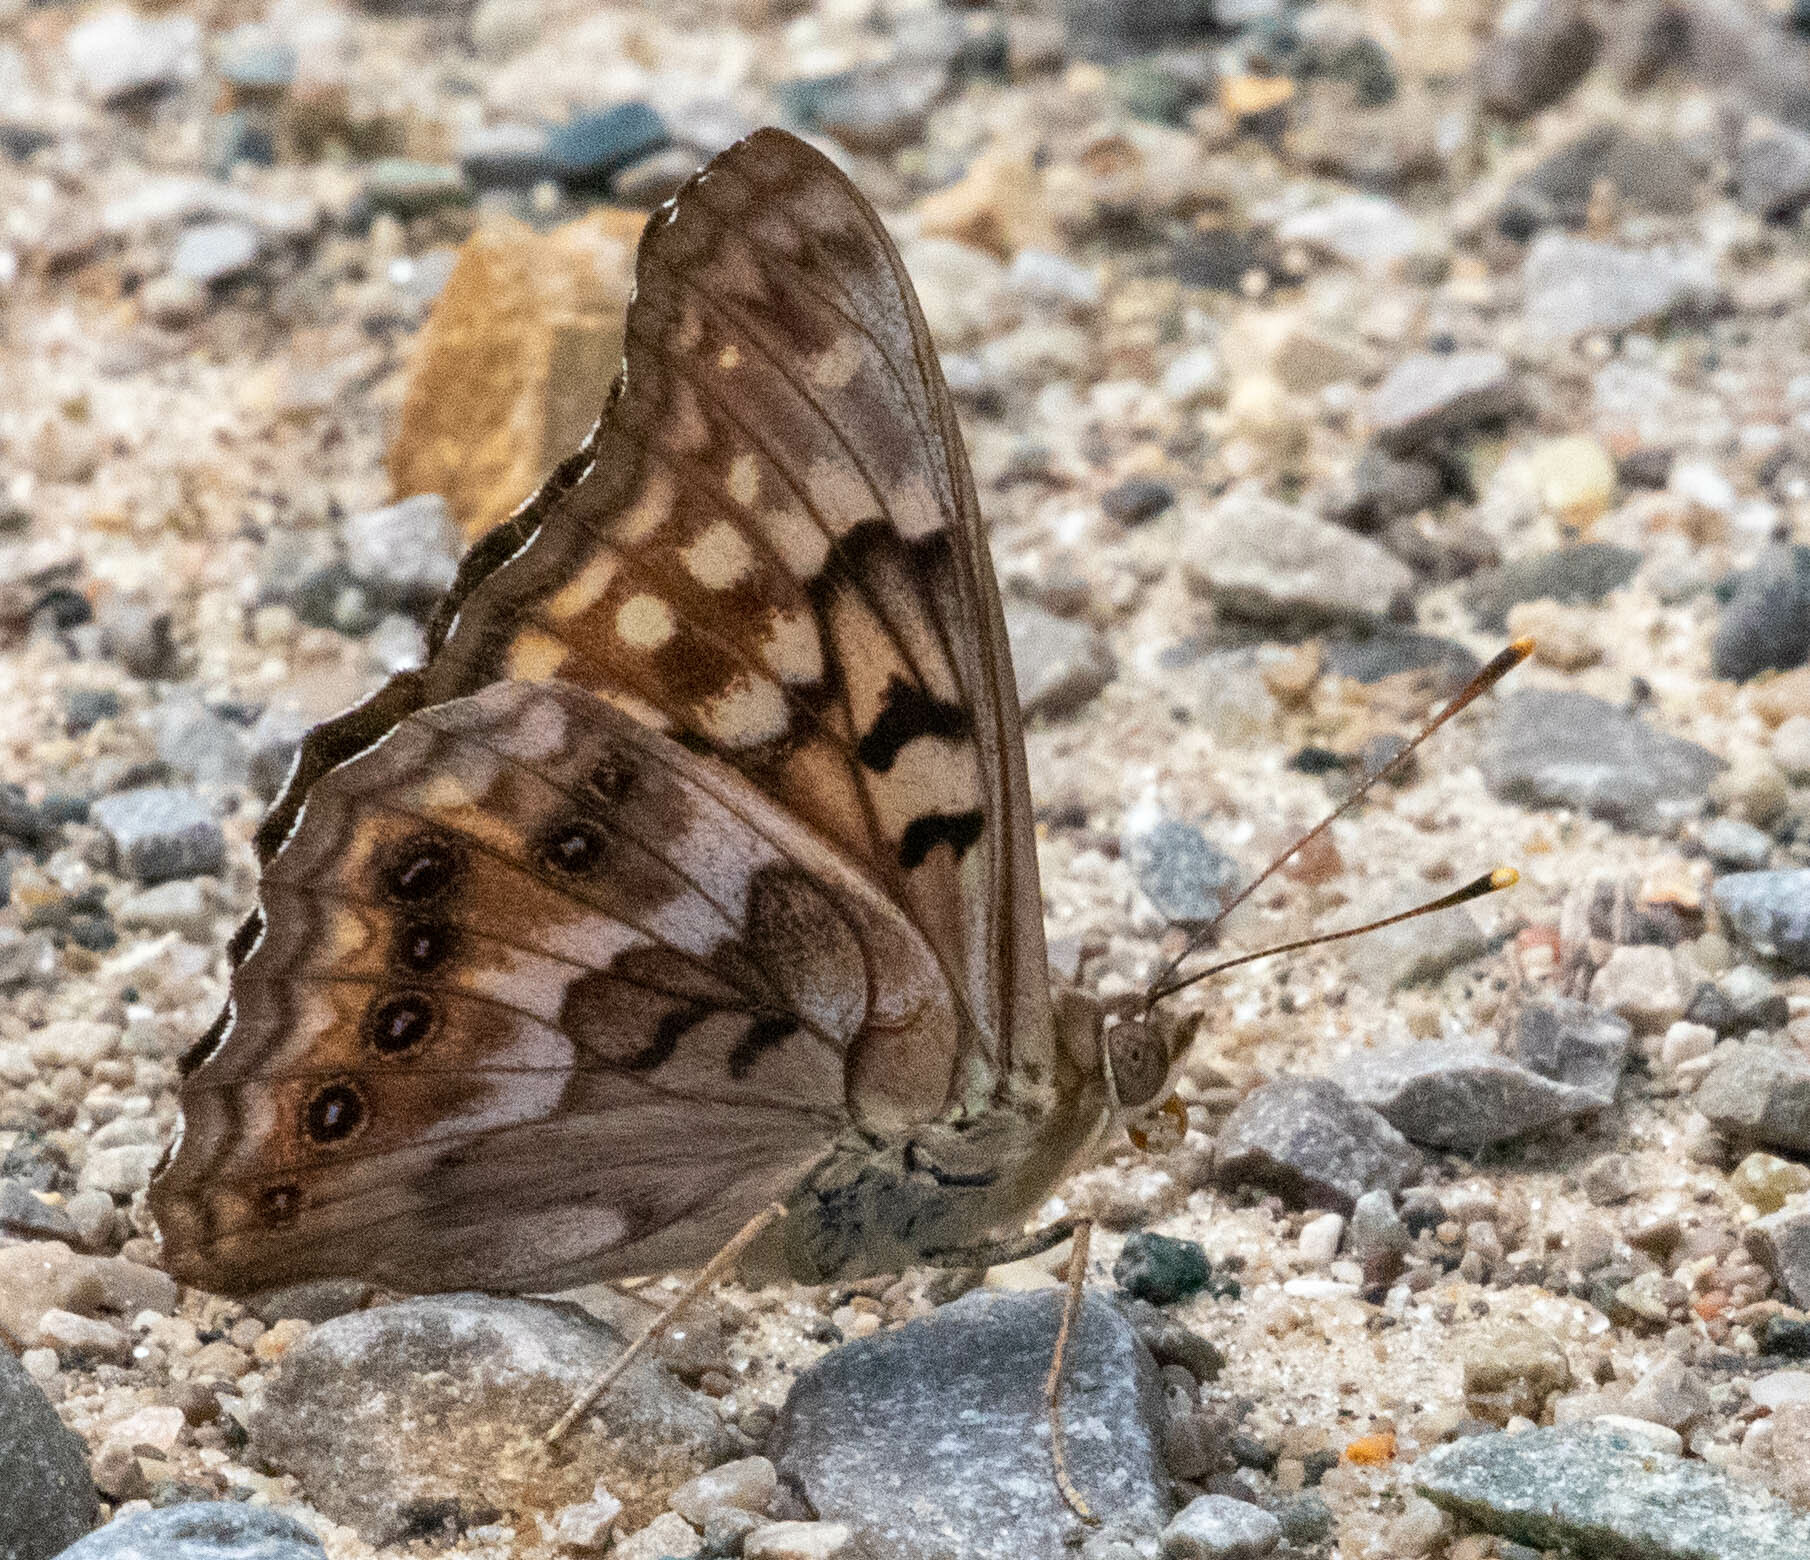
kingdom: Animalia
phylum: Arthropoda
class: Insecta
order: Lepidoptera
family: Nymphalidae
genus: Asterocampa
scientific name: Asterocampa clyton
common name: Tawny emperor
